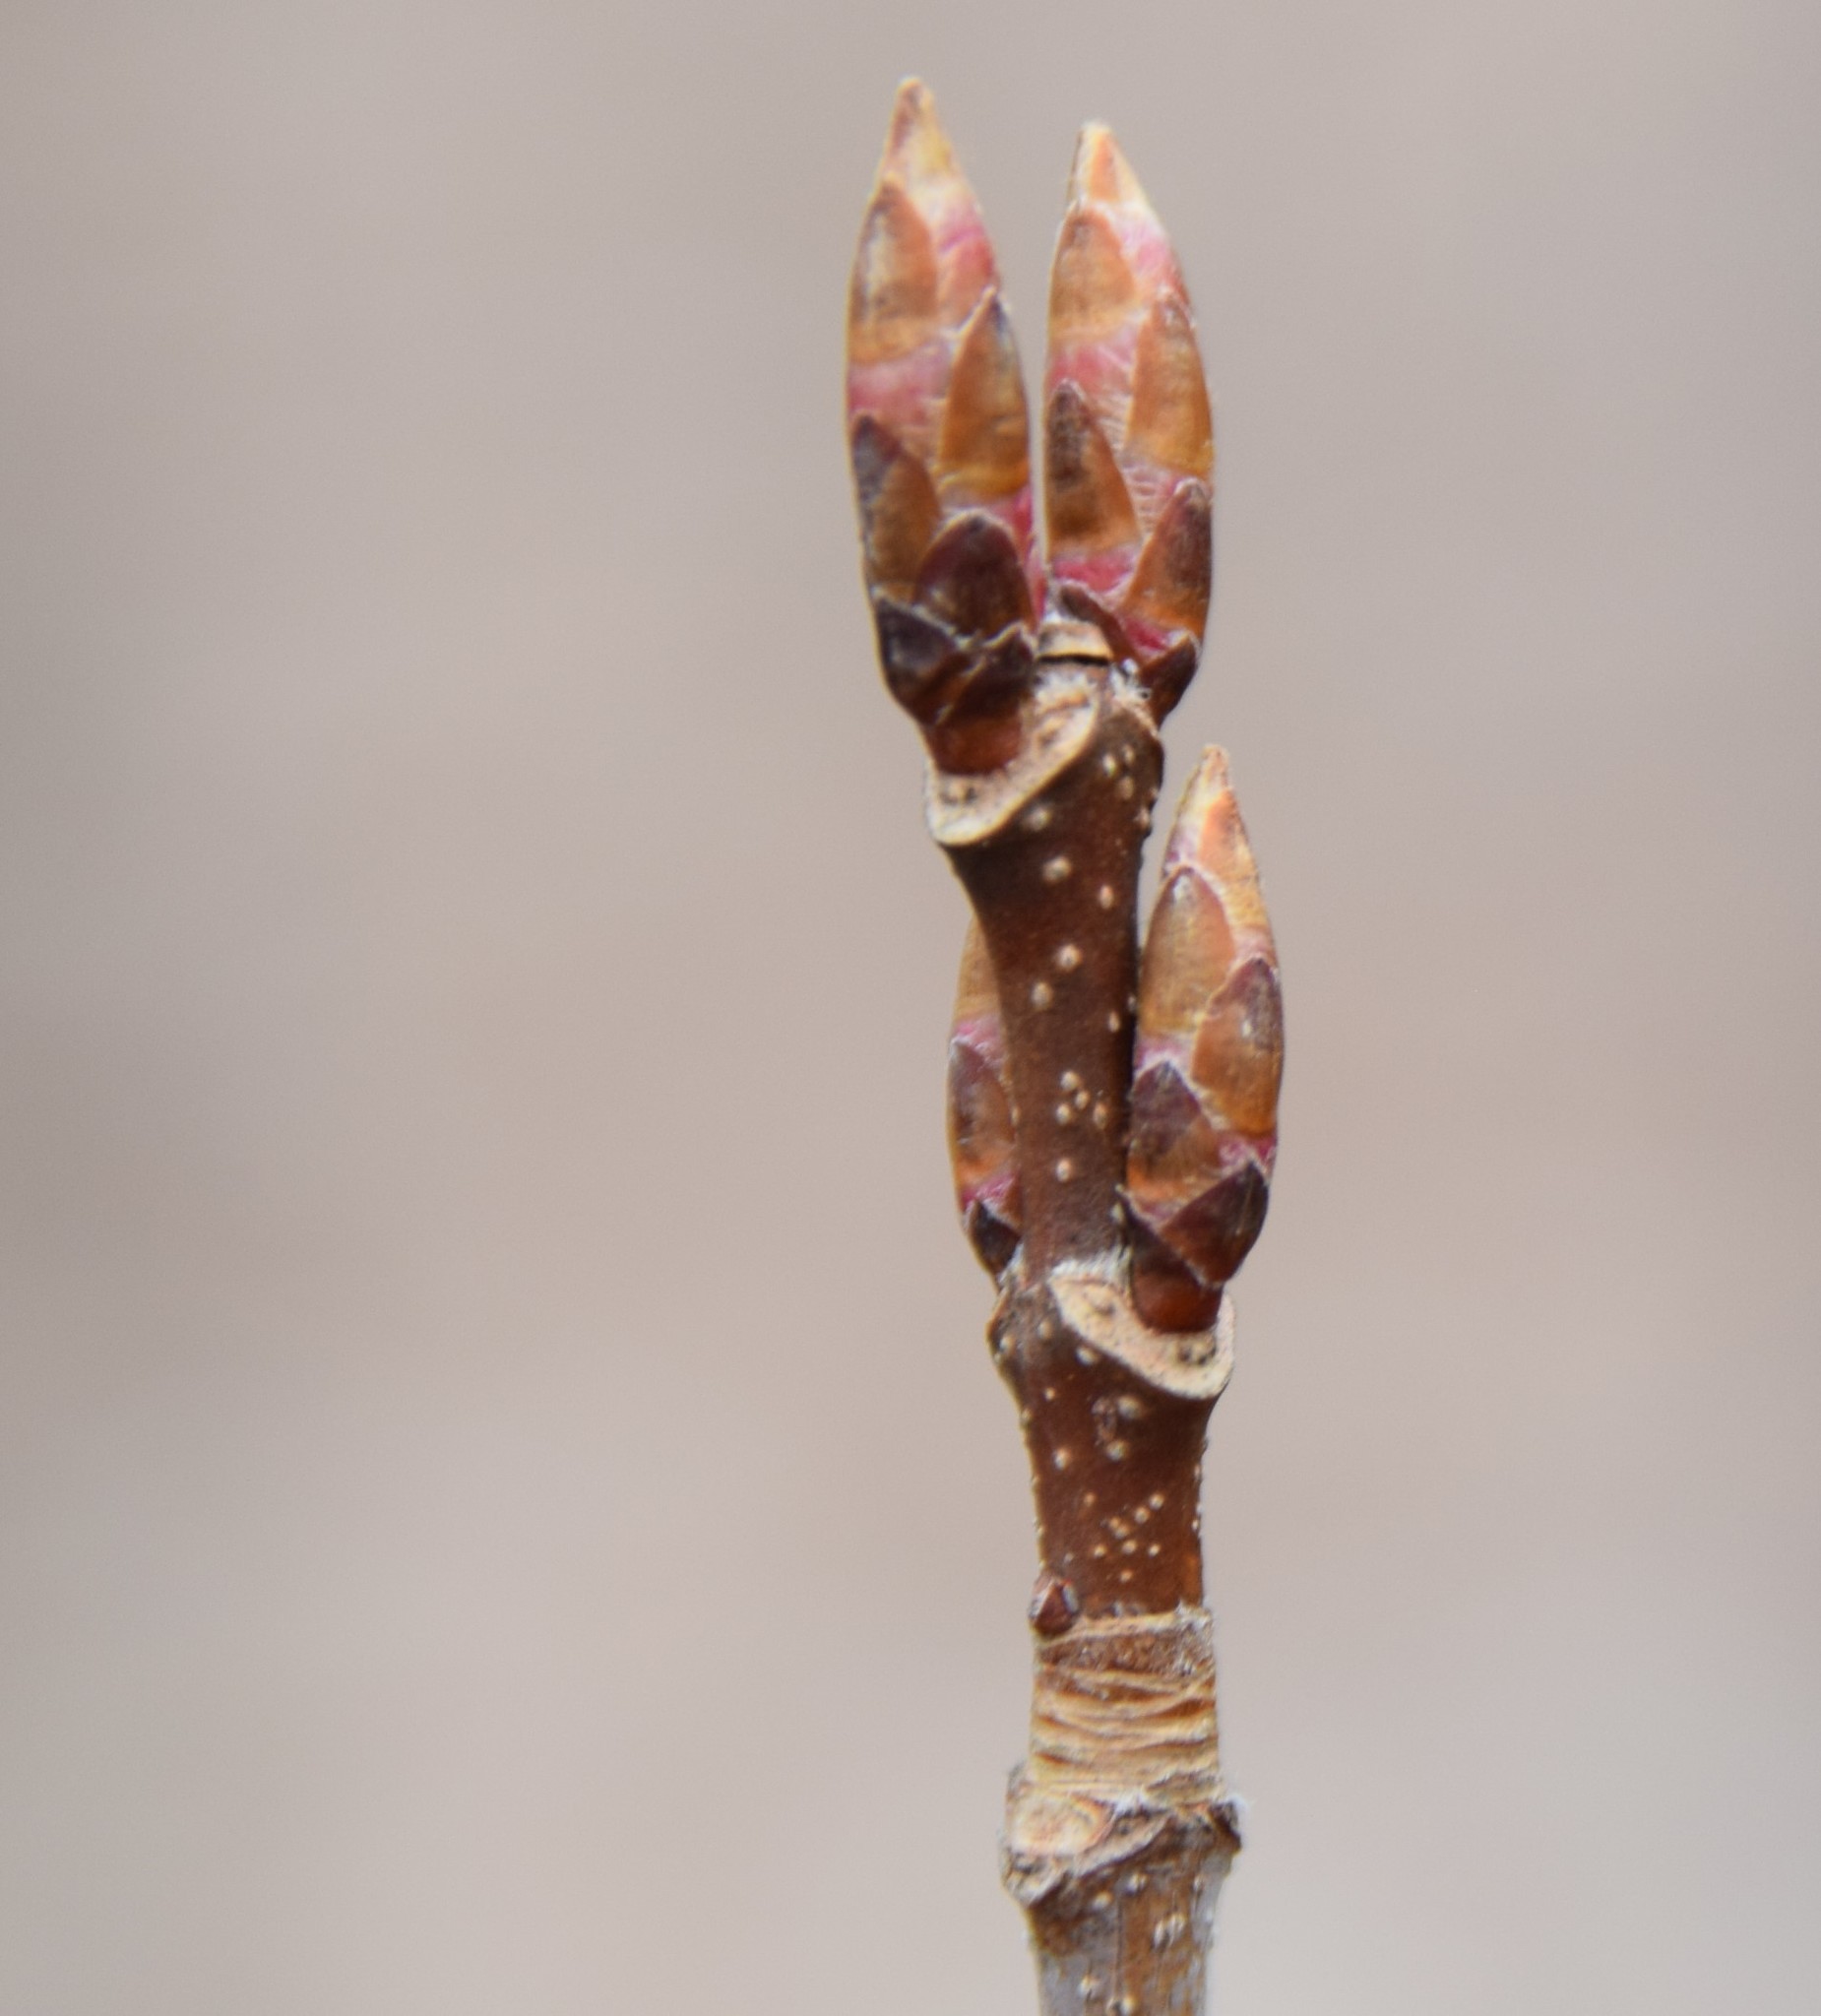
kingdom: Plantae
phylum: Tracheophyta
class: Magnoliopsida
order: Sapindales
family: Sapindaceae
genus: Acer
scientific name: Acer saccharum
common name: Sugar maple
